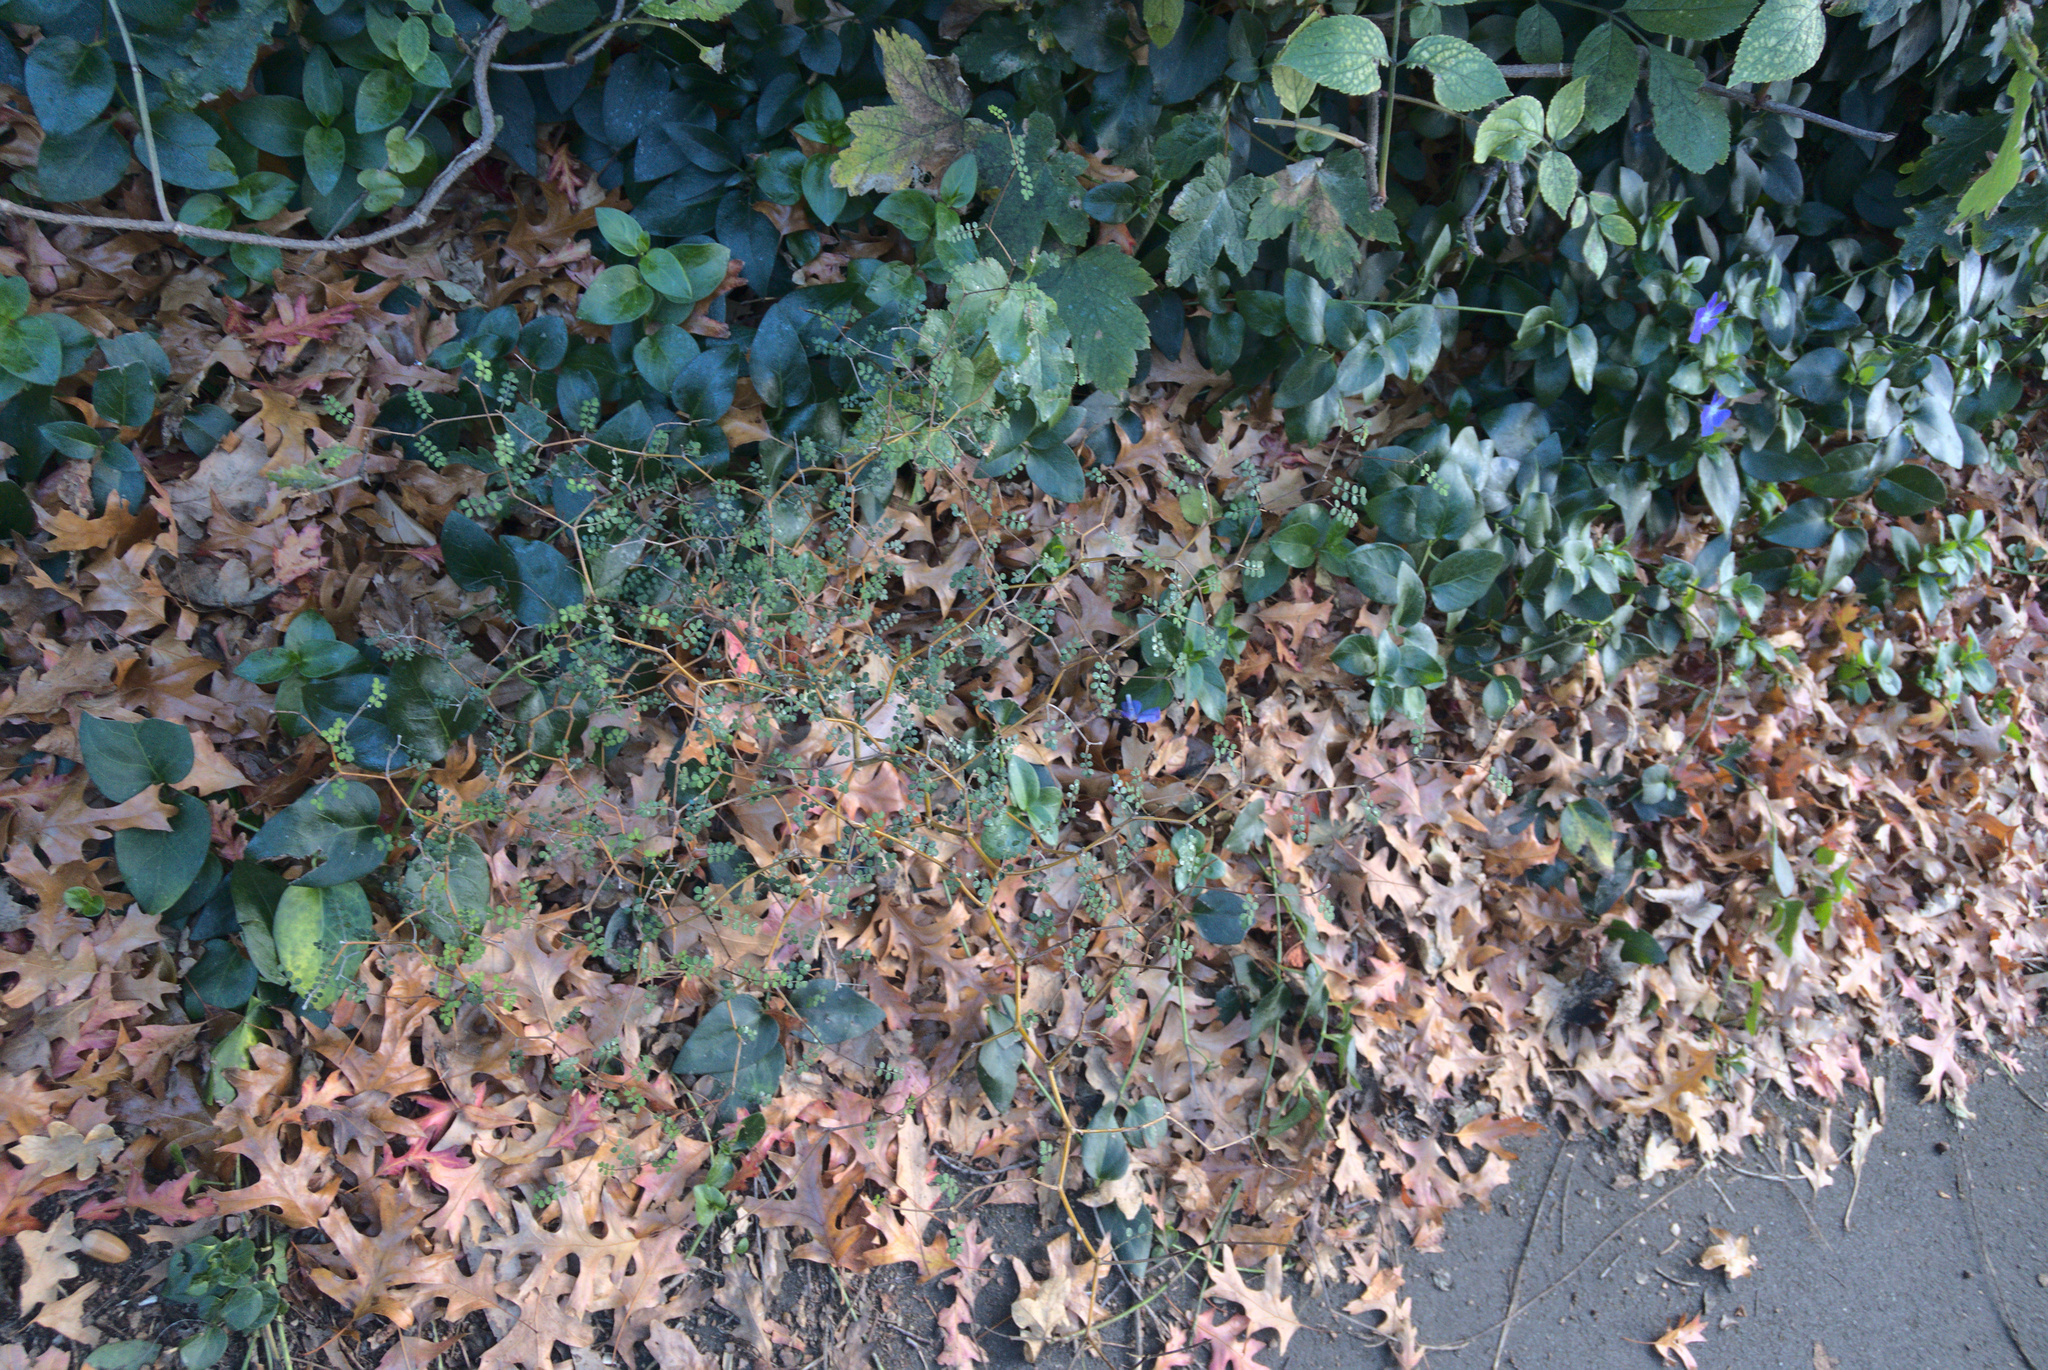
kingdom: Plantae
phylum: Tracheophyta
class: Magnoliopsida
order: Fabales
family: Fabaceae
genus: Sophora
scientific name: Sophora microphylla
